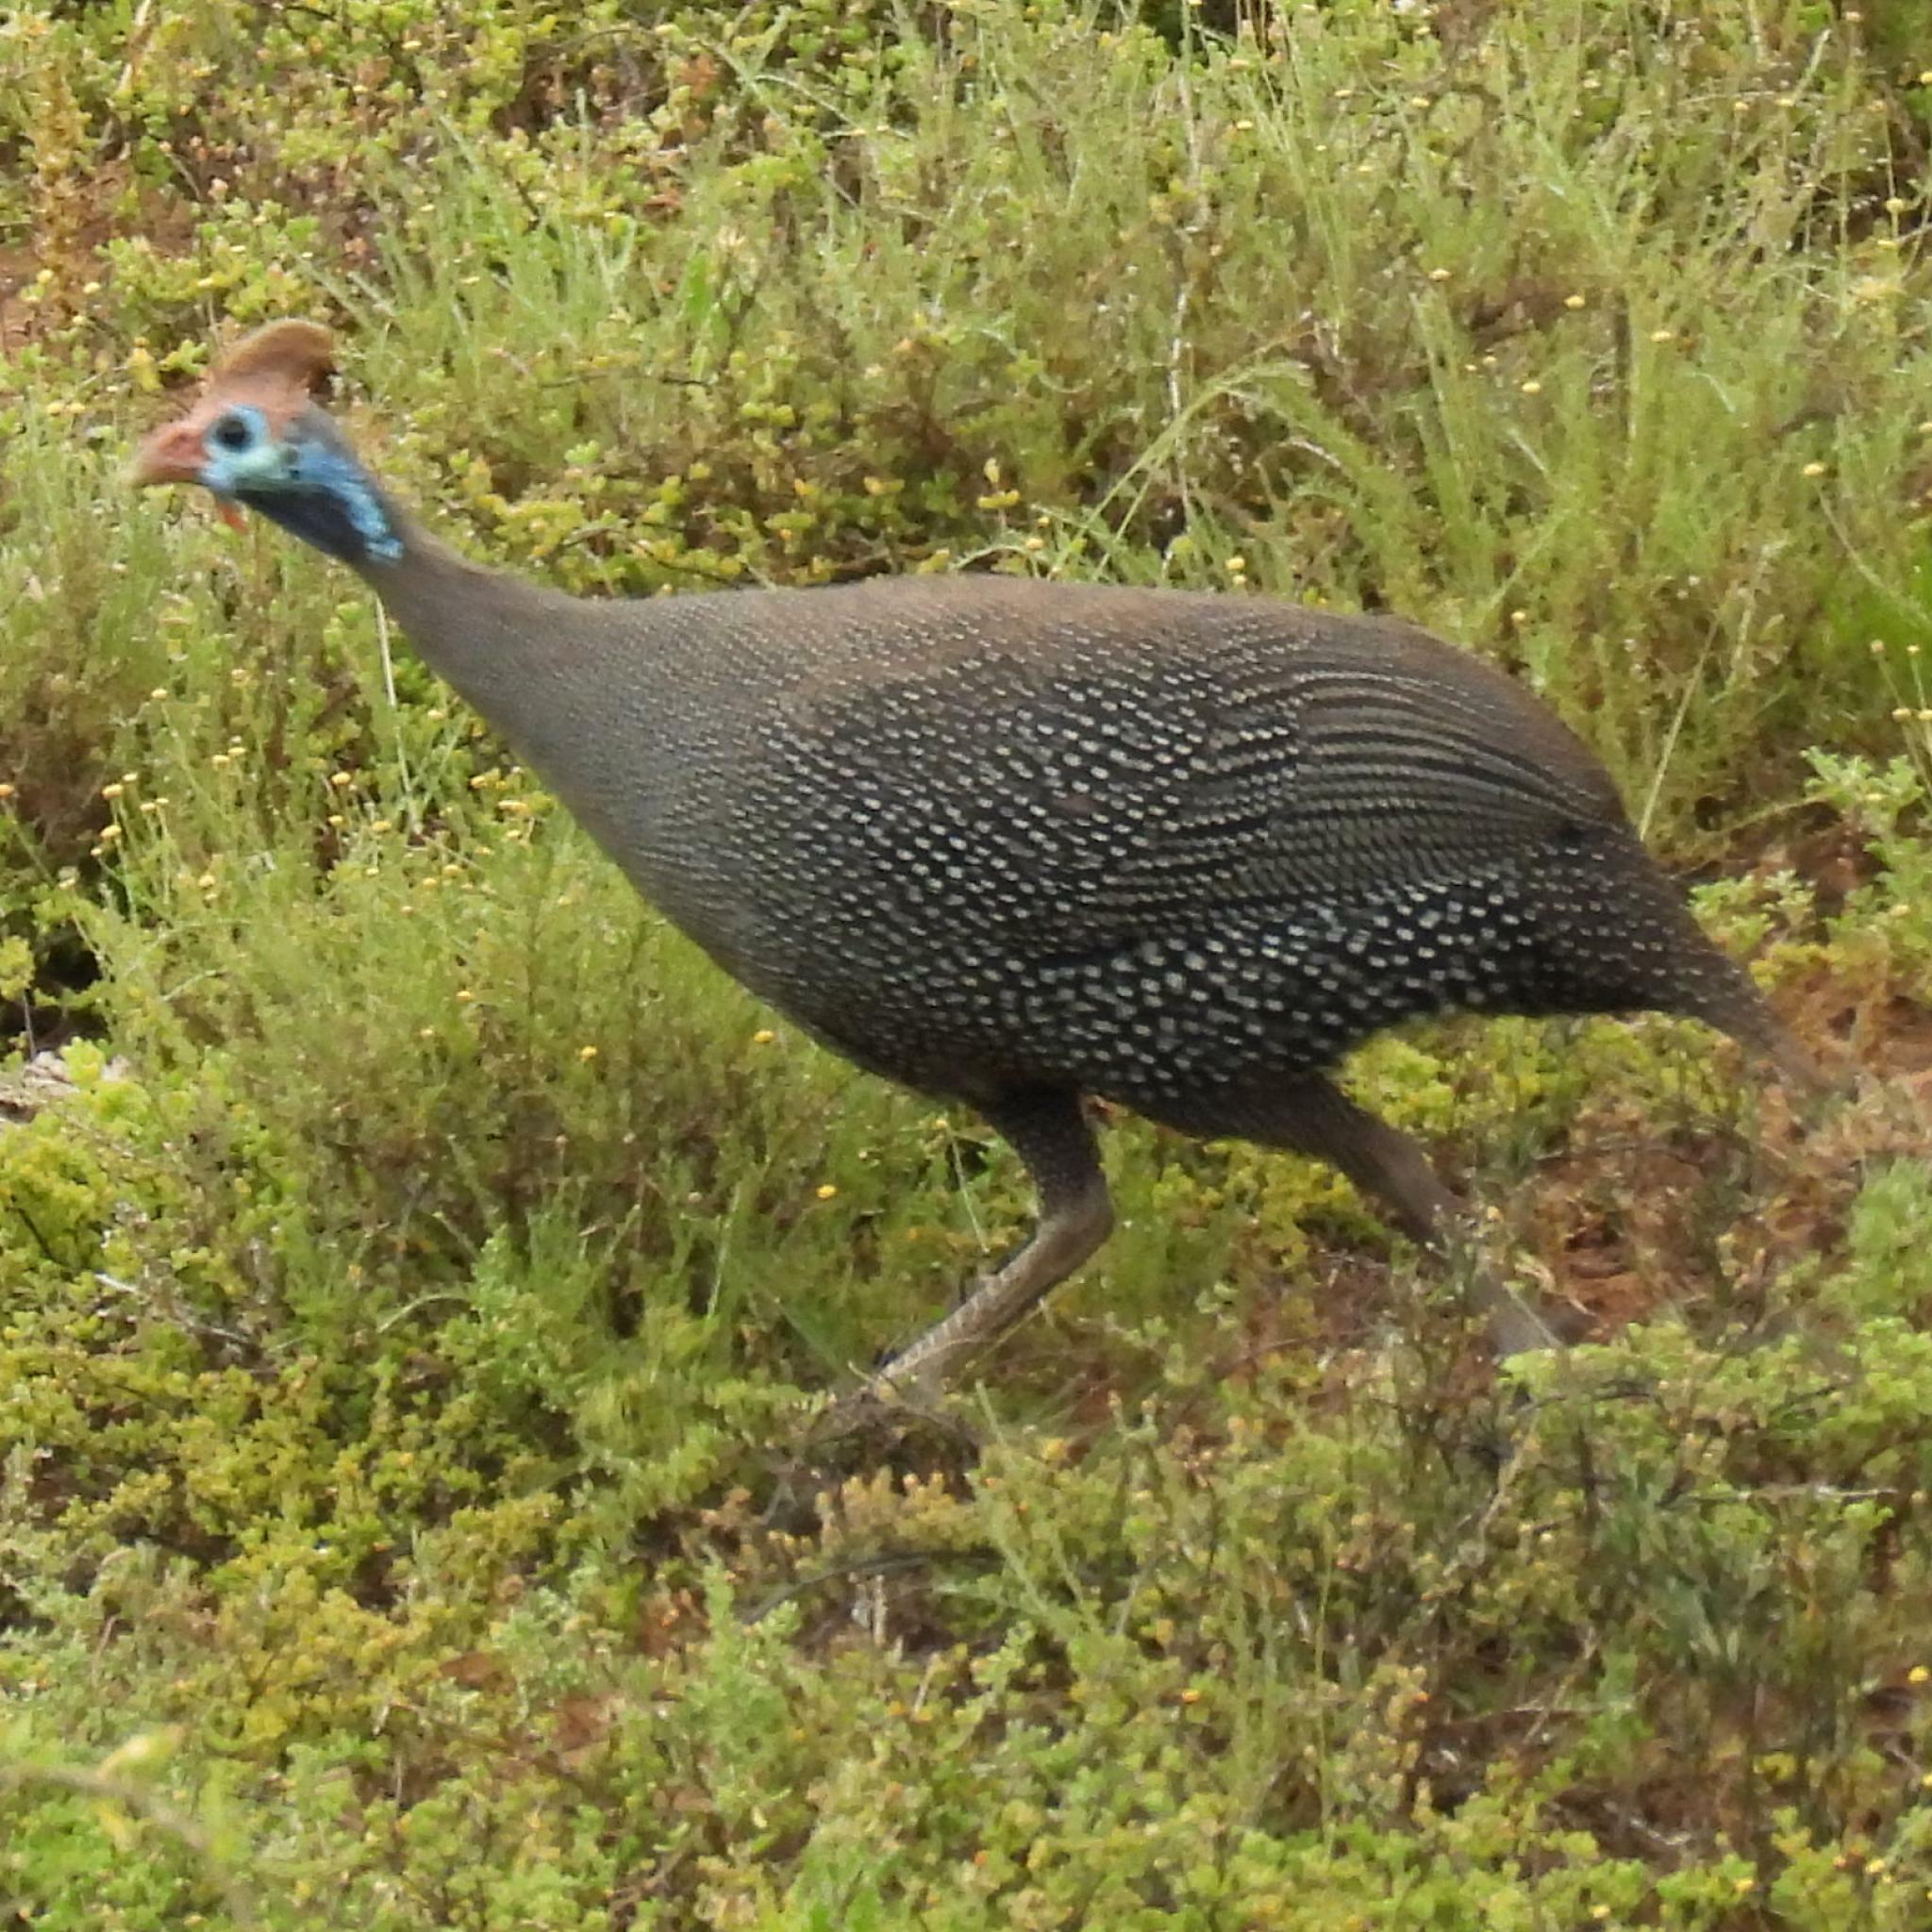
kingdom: Animalia
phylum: Chordata
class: Aves
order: Galliformes
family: Numididae
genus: Numida
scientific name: Numida meleagris
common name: Helmeted guineafowl
